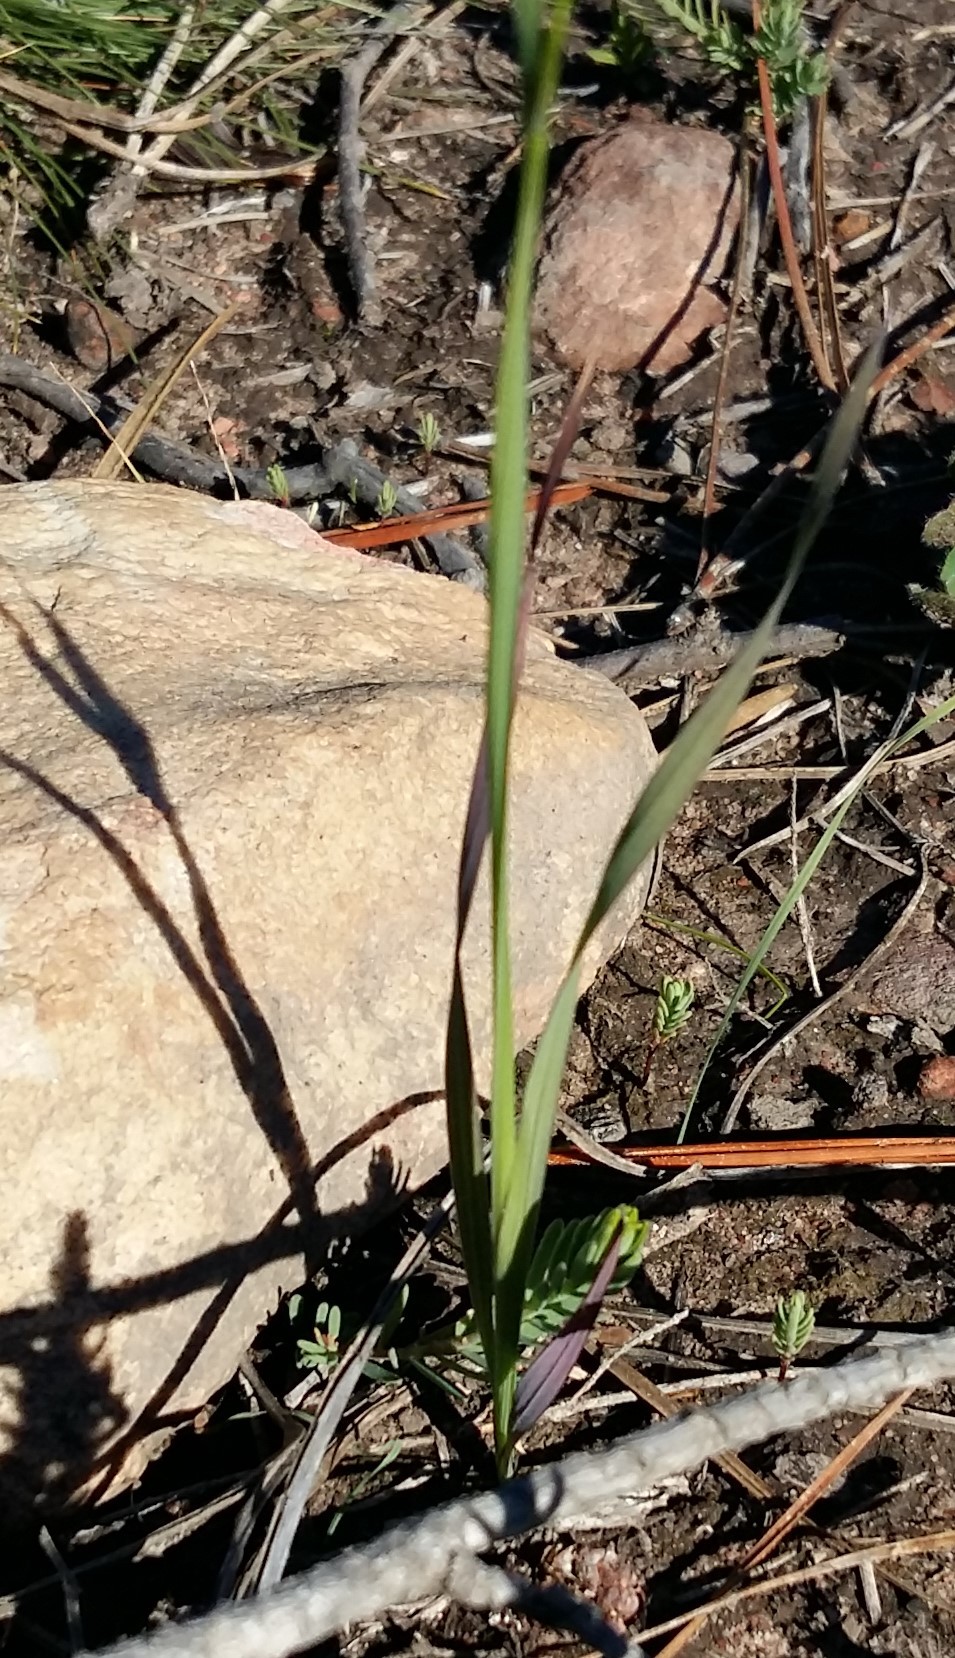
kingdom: Plantae
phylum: Tracheophyta
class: Liliopsida
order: Asparagales
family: Iridaceae
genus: Ixia
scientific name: Ixia orientalis
